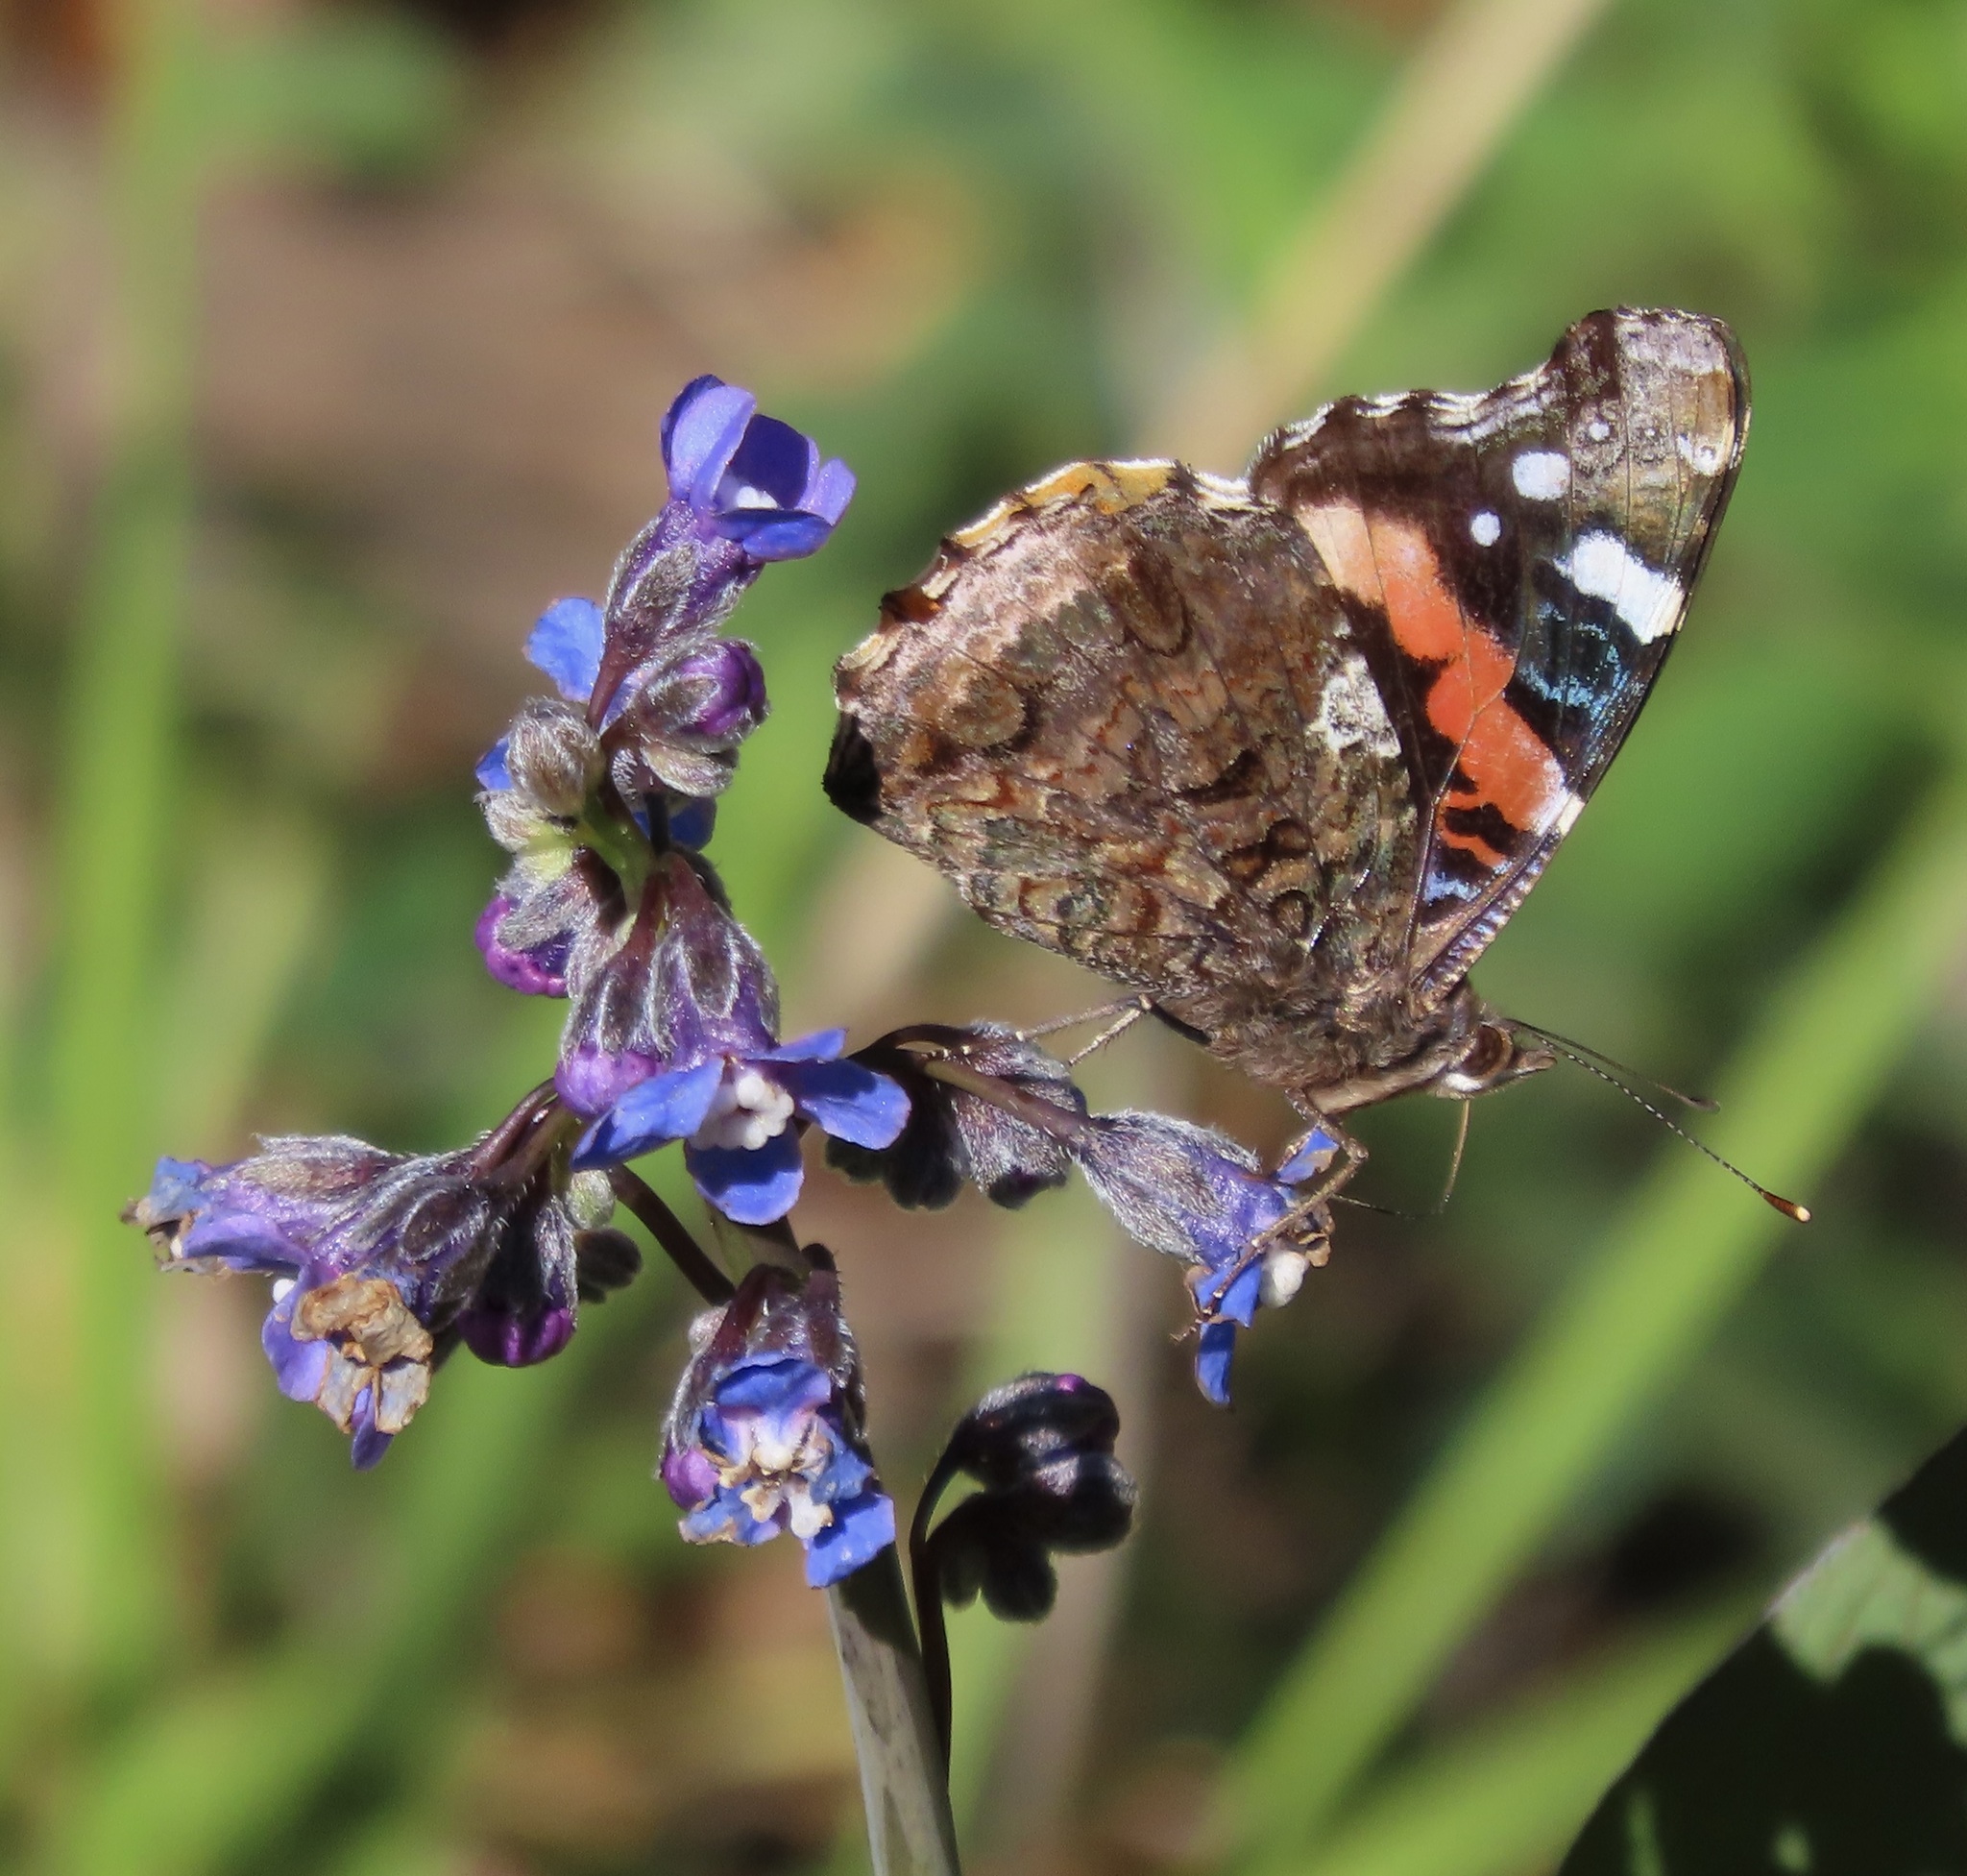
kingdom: Animalia
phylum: Arthropoda
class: Insecta
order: Lepidoptera
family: Nymphalidae
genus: Vanessa
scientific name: Vanessa atalanta
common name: Red admiral
